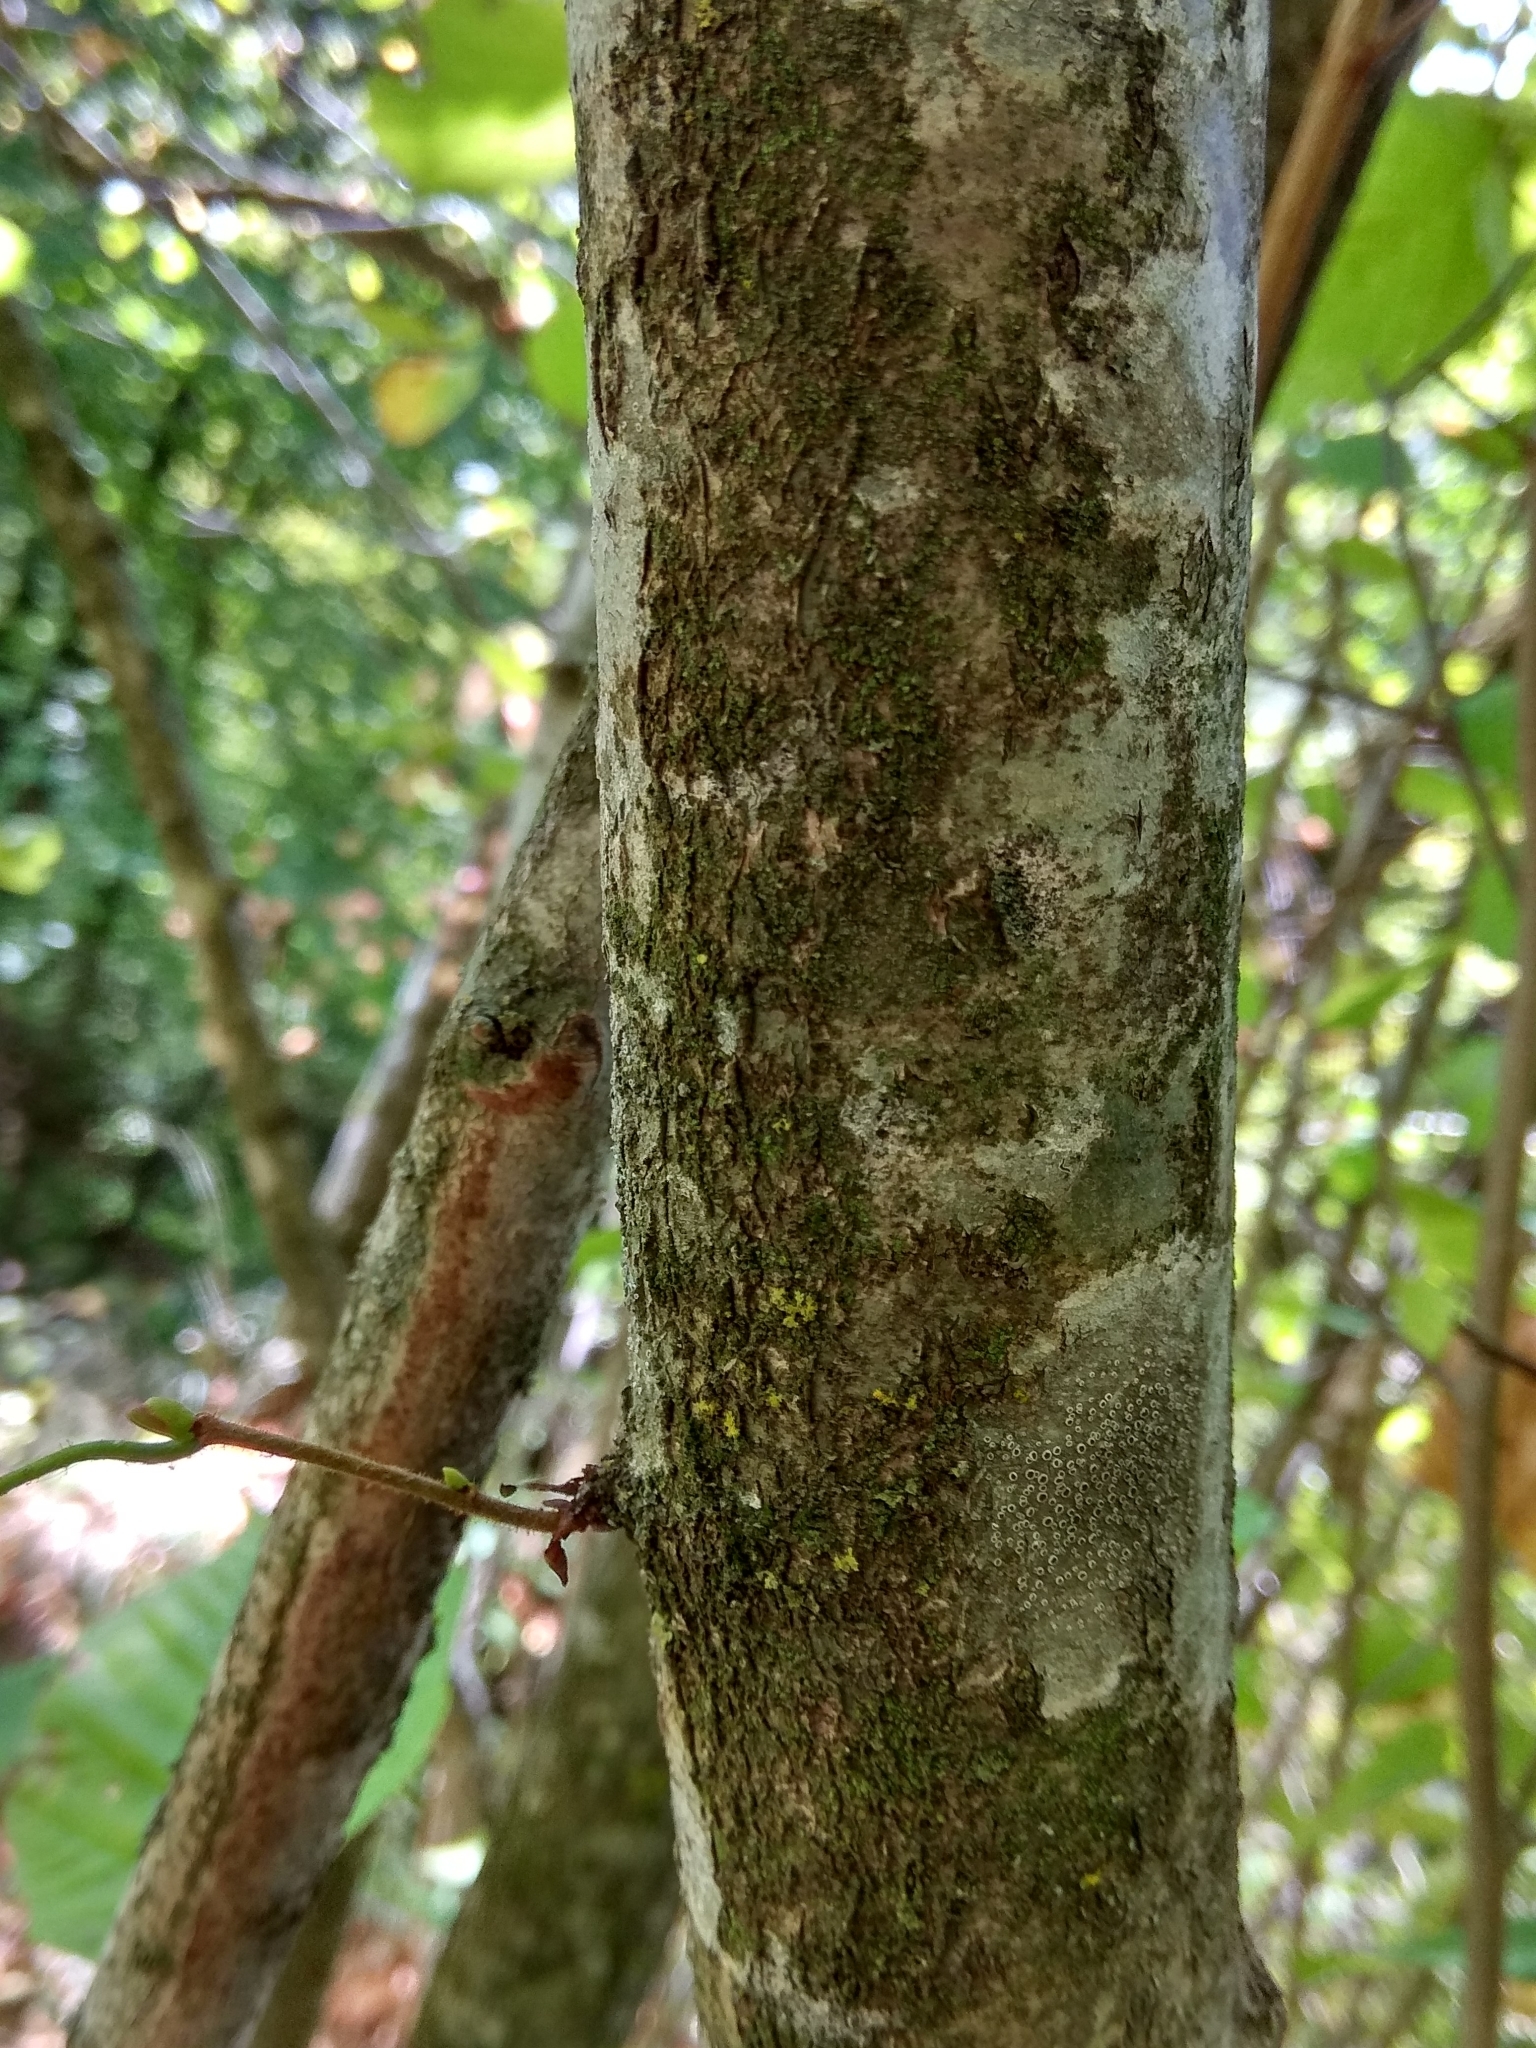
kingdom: Plantae
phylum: Tracheophyta
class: Magnoliopsida
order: Fagales
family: Betulaceae
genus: Corylus
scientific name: Corylus avellana
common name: European hazel
